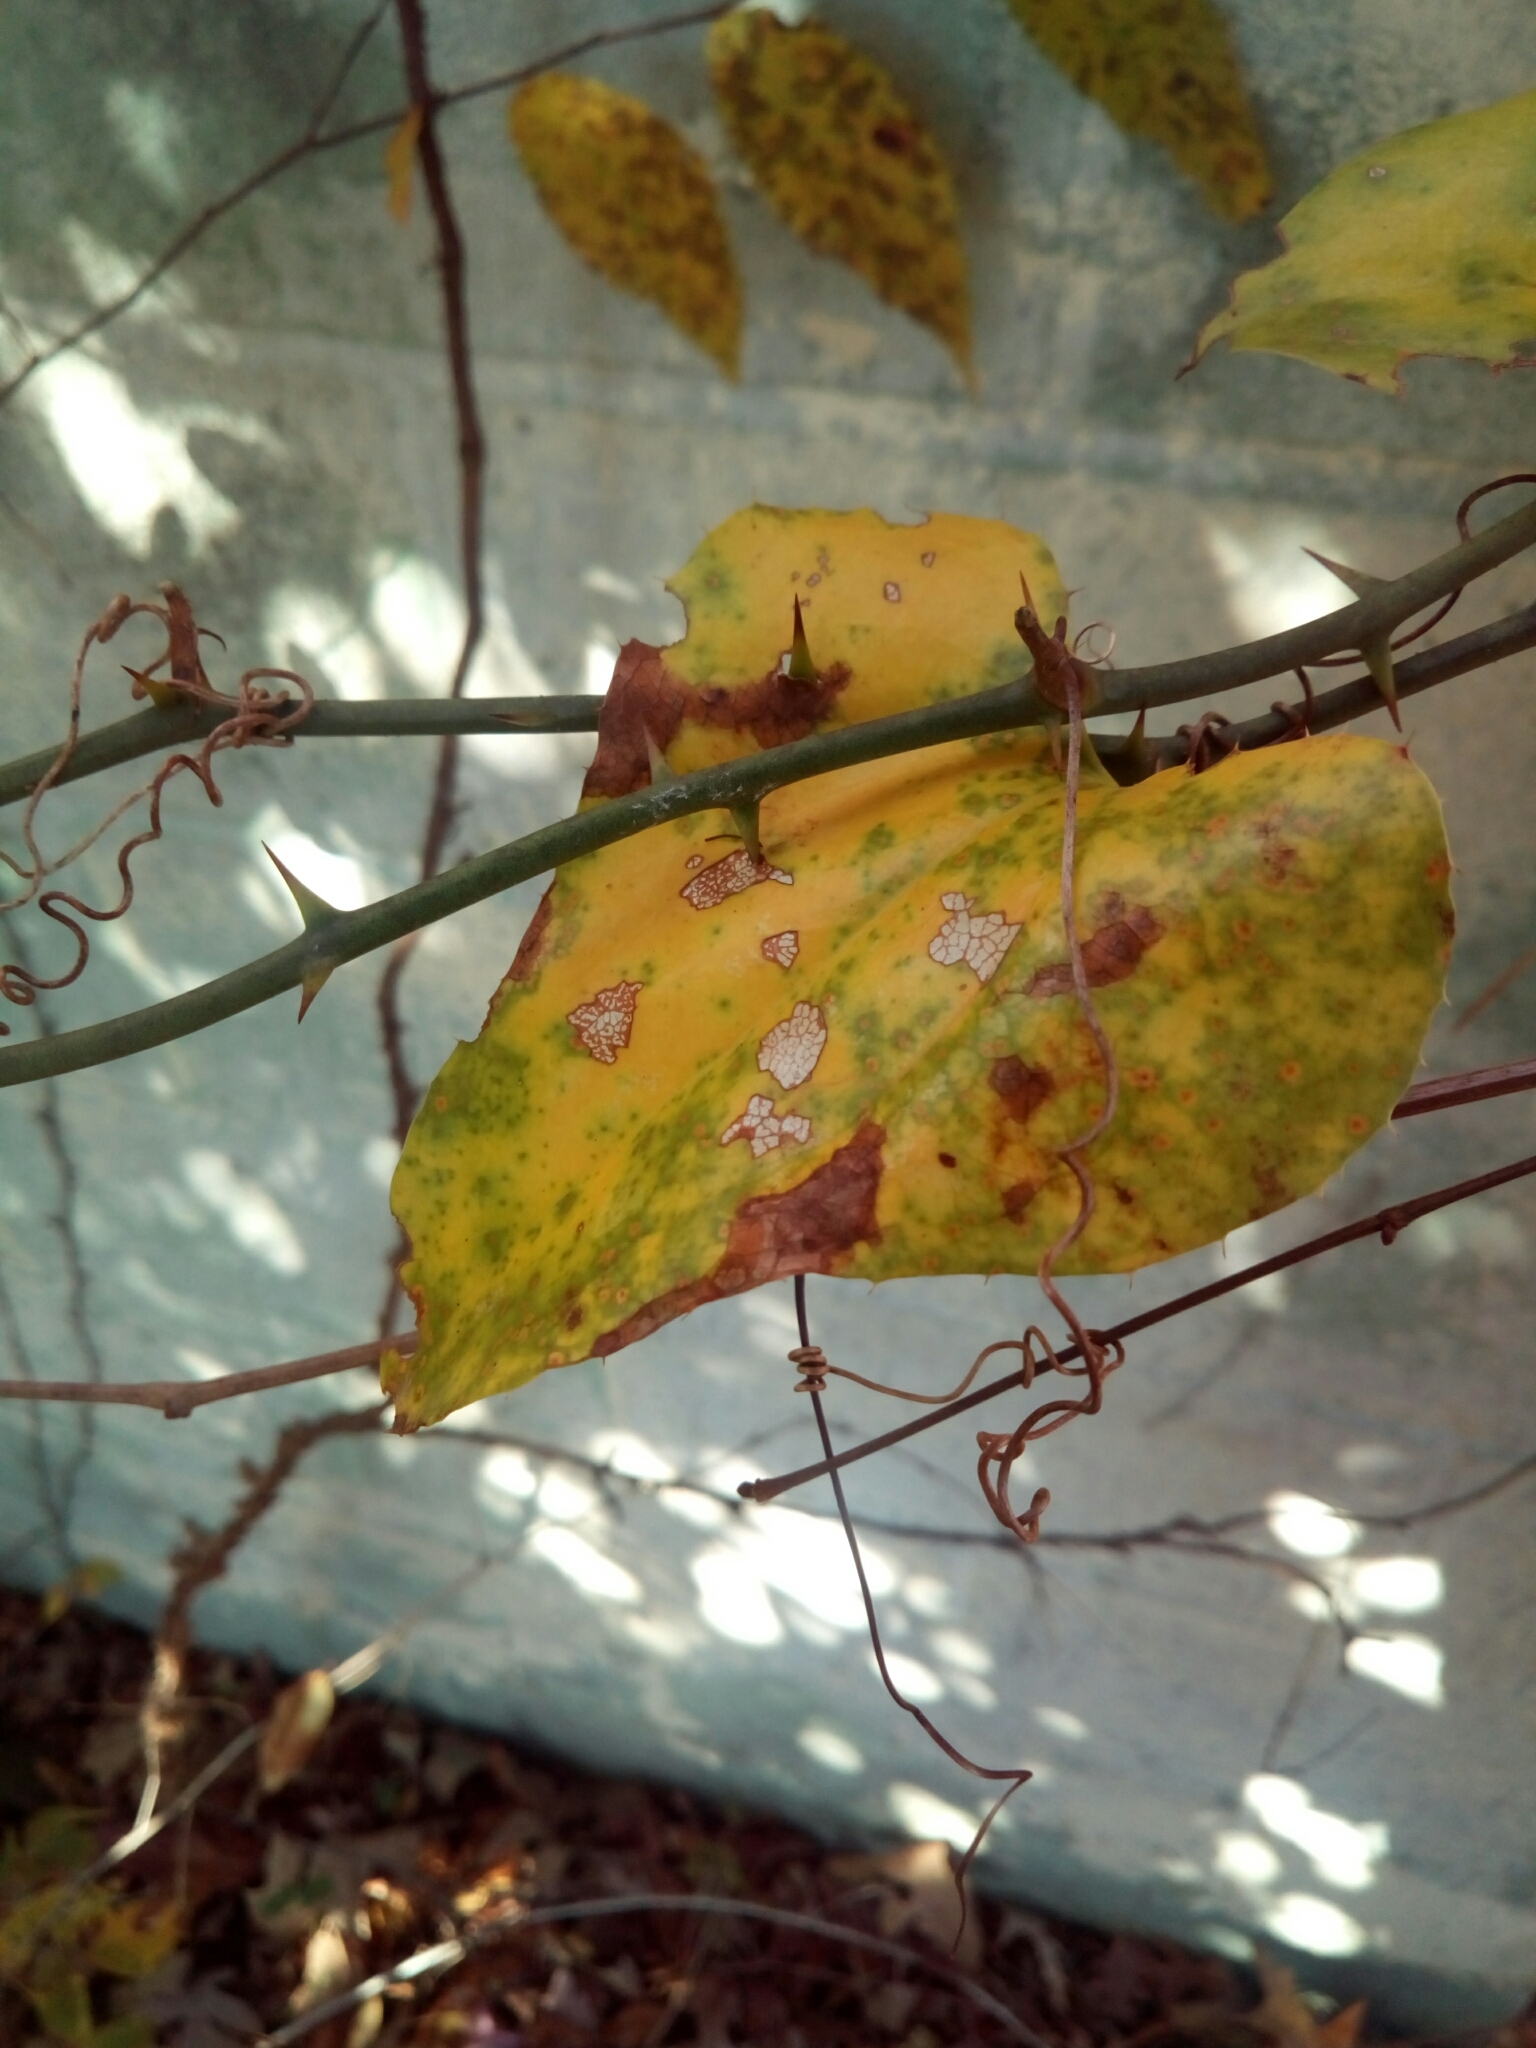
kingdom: Plantae
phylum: Tracheophyta
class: Liliopsida
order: Liliales
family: Smilacaceae
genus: Smilax
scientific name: Smilax bona-nox
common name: Catbrier
